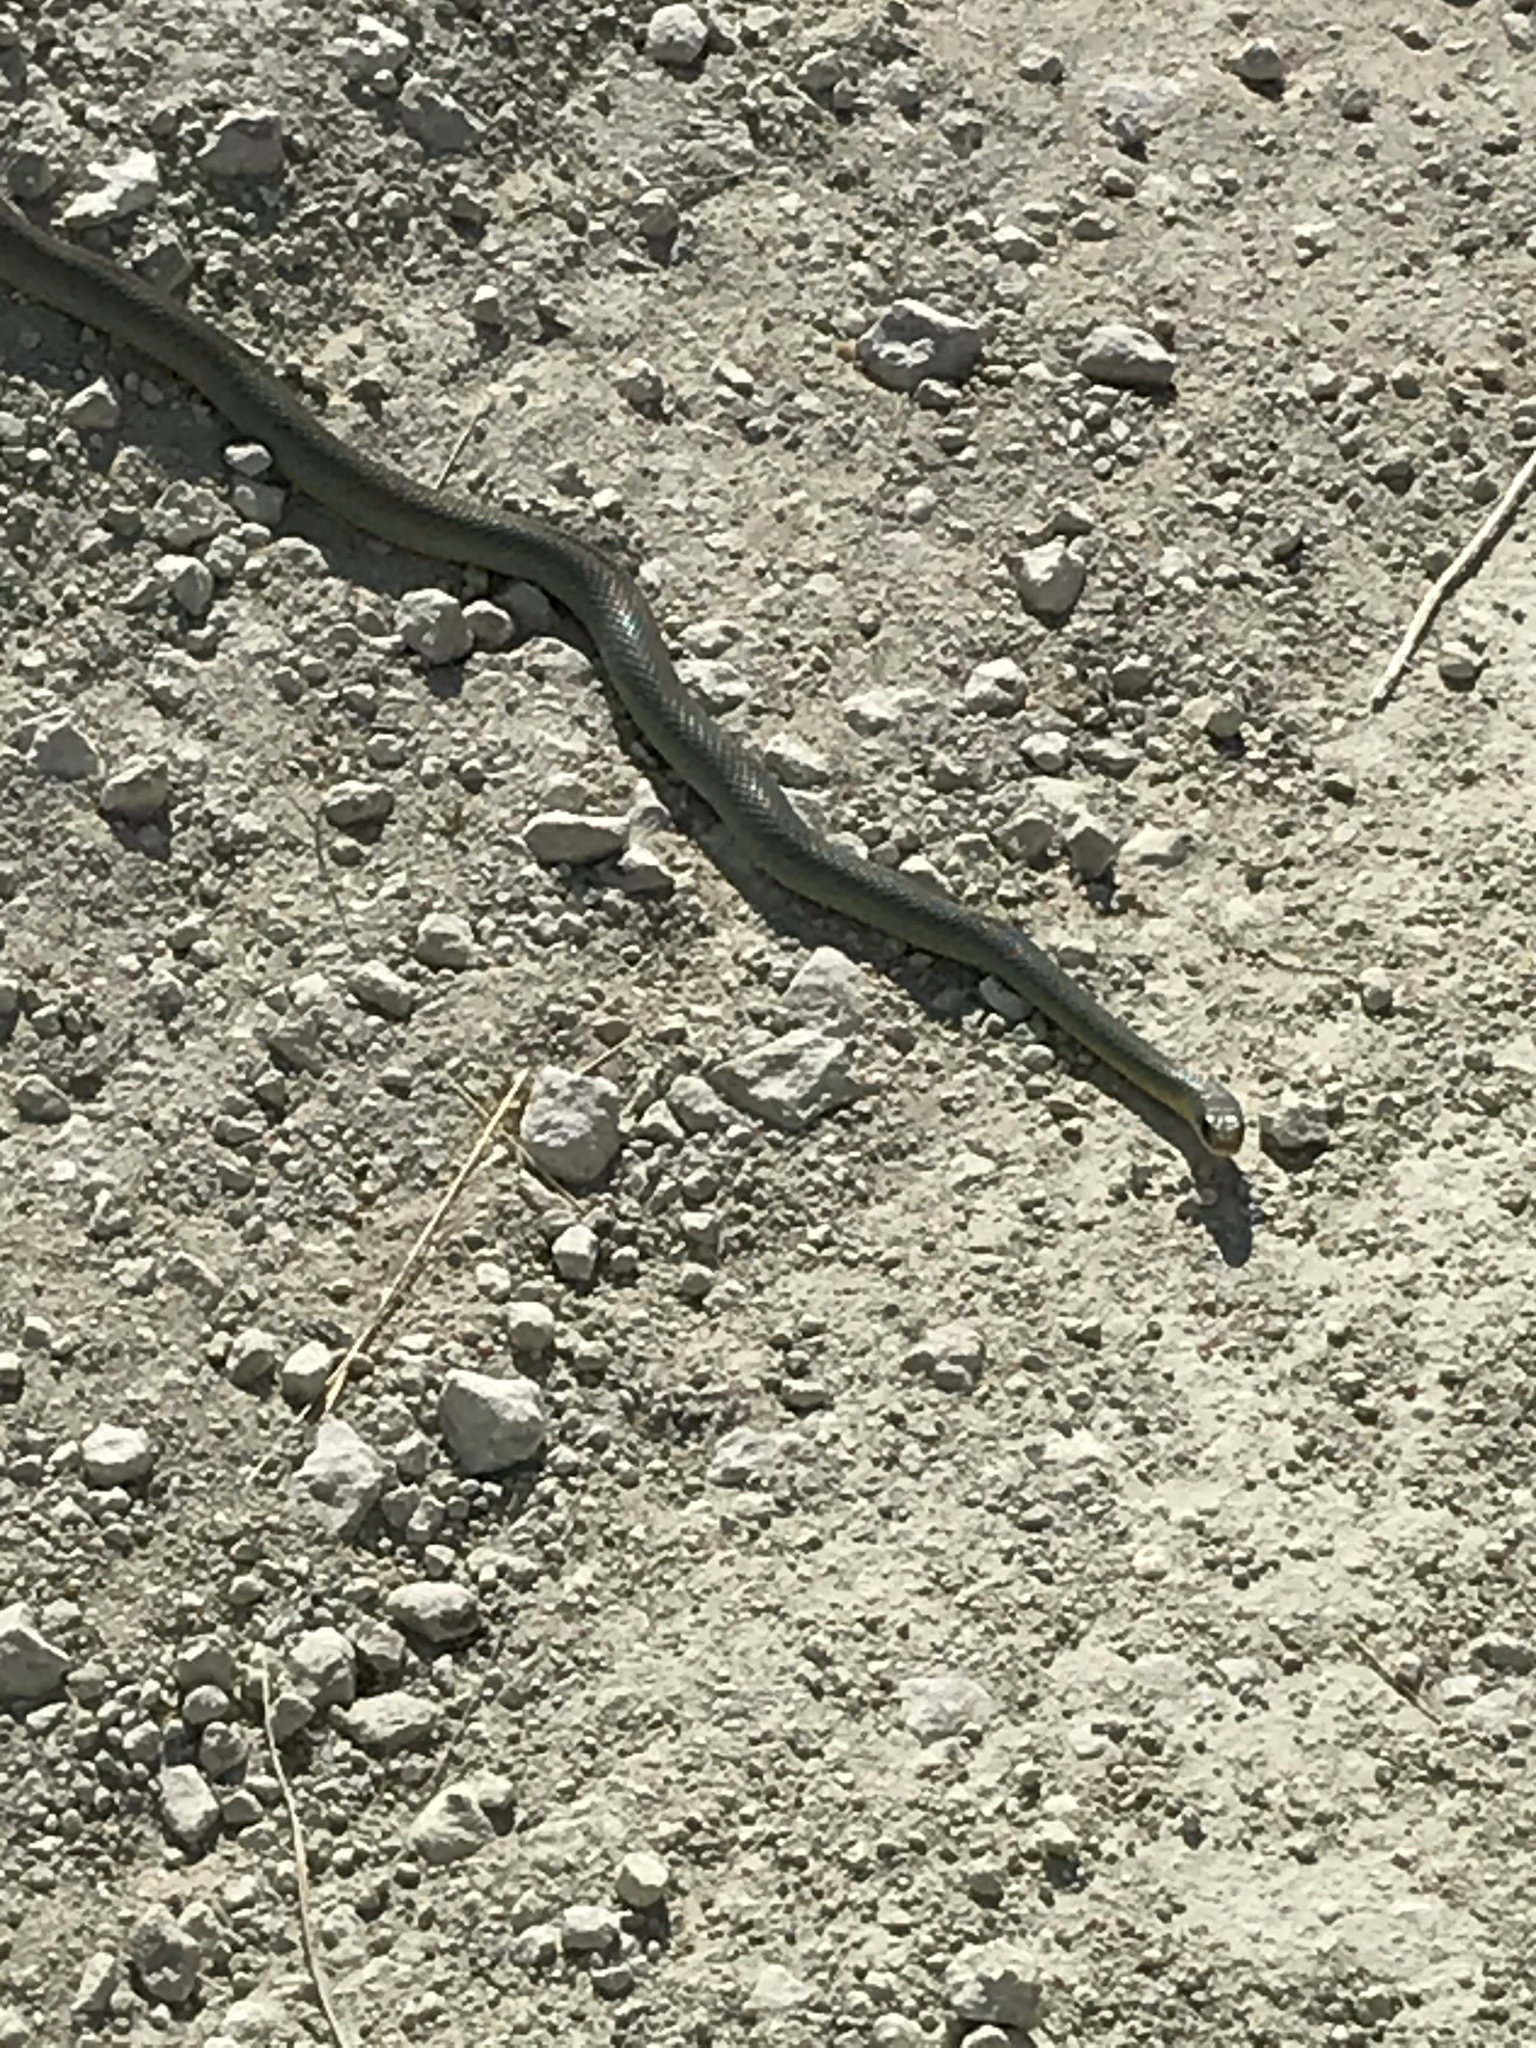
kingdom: Animalia
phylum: Chordata
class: Squamata
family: Colubridae
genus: Coluber
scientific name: Coluber constrictor
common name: Eastern racer
